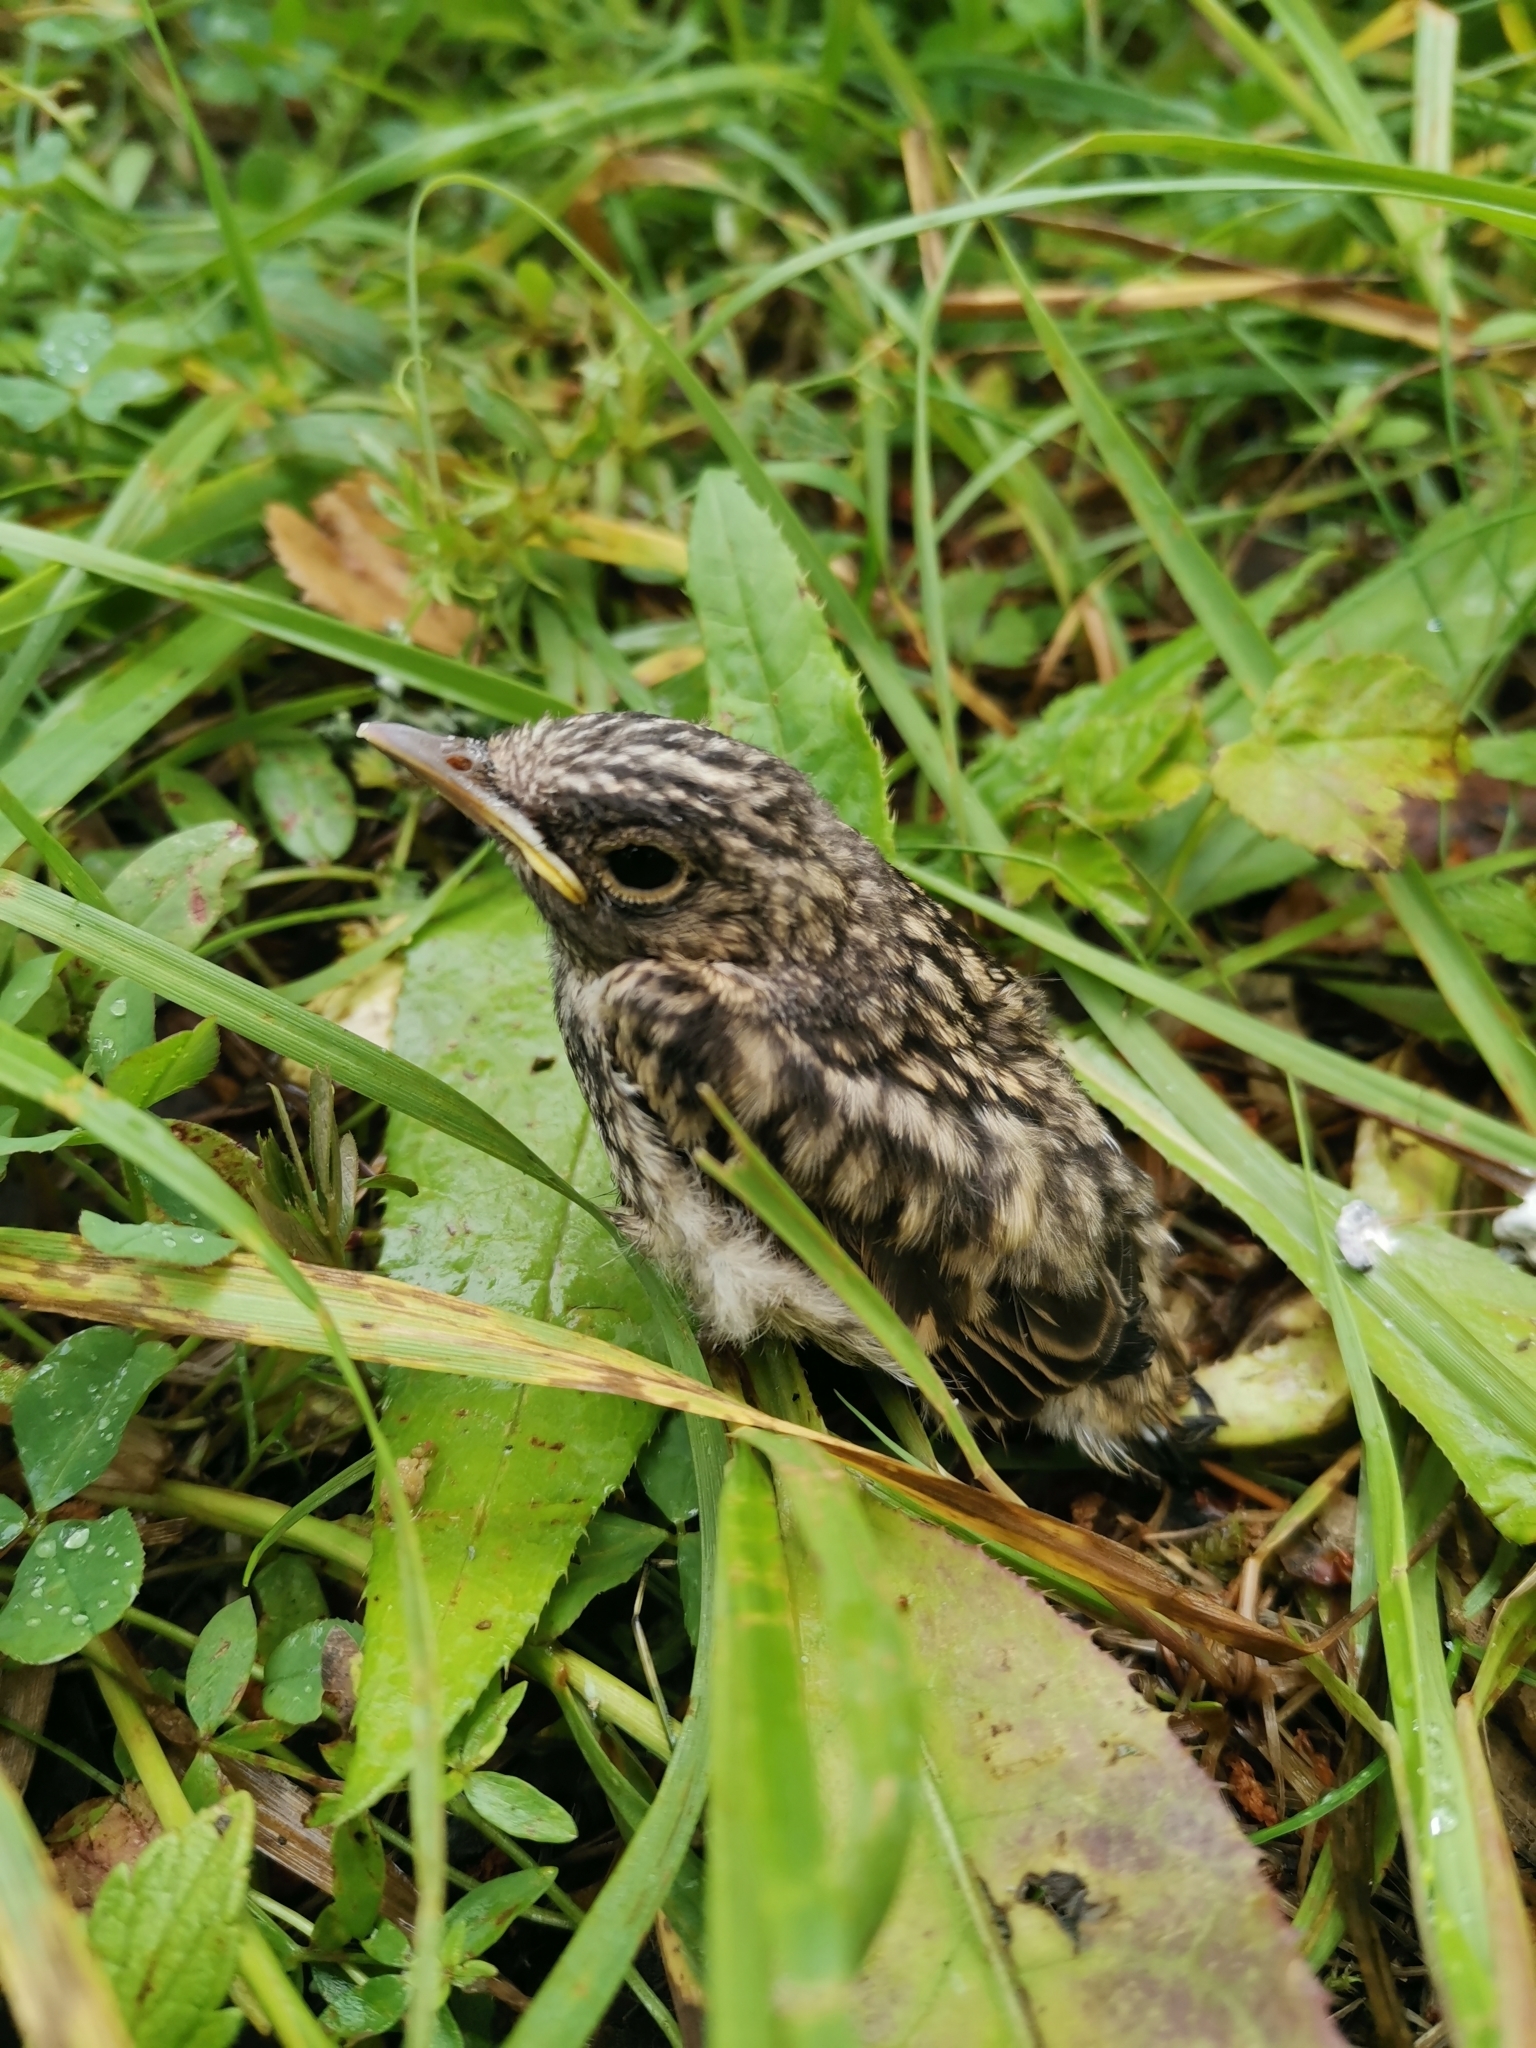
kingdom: Animalia
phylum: Chordata
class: Aves
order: Passeriformes
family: Muscicapidae
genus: Muscicapa
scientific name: Muscicapa striata
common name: Spotted flycatcher
